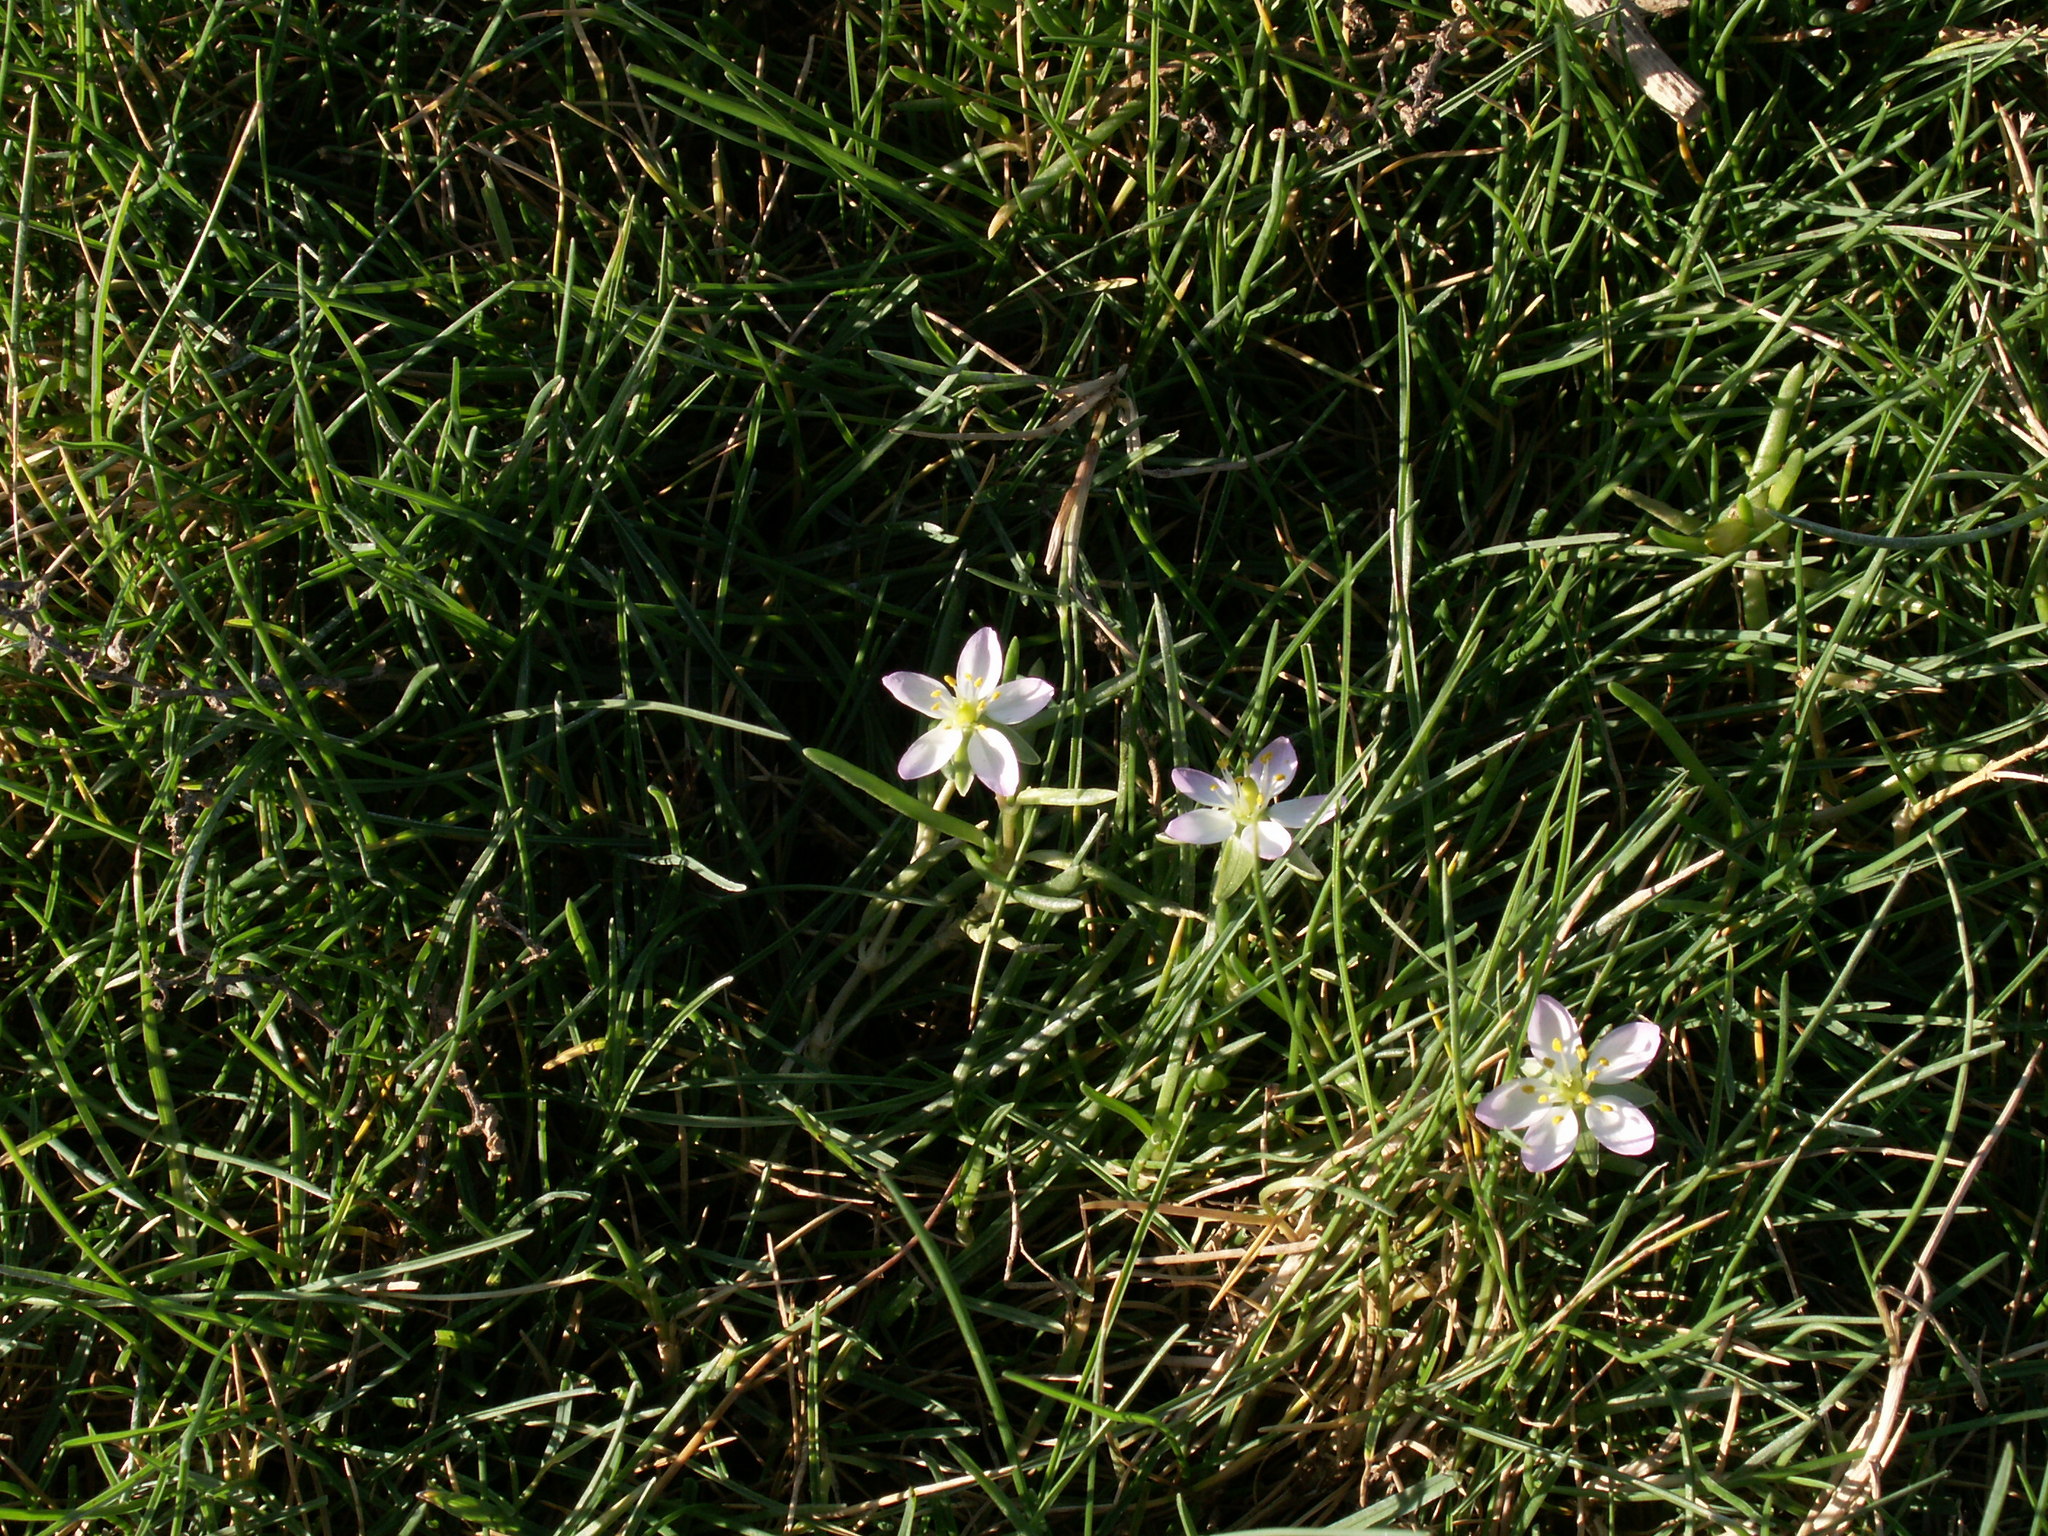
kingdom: Plantae
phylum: Tracheophyta
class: Magnoliopsida
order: Caryophyllales
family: Caryophyllaceae
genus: Spergularia
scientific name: Spergularia media
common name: Greater sea-spurrey
